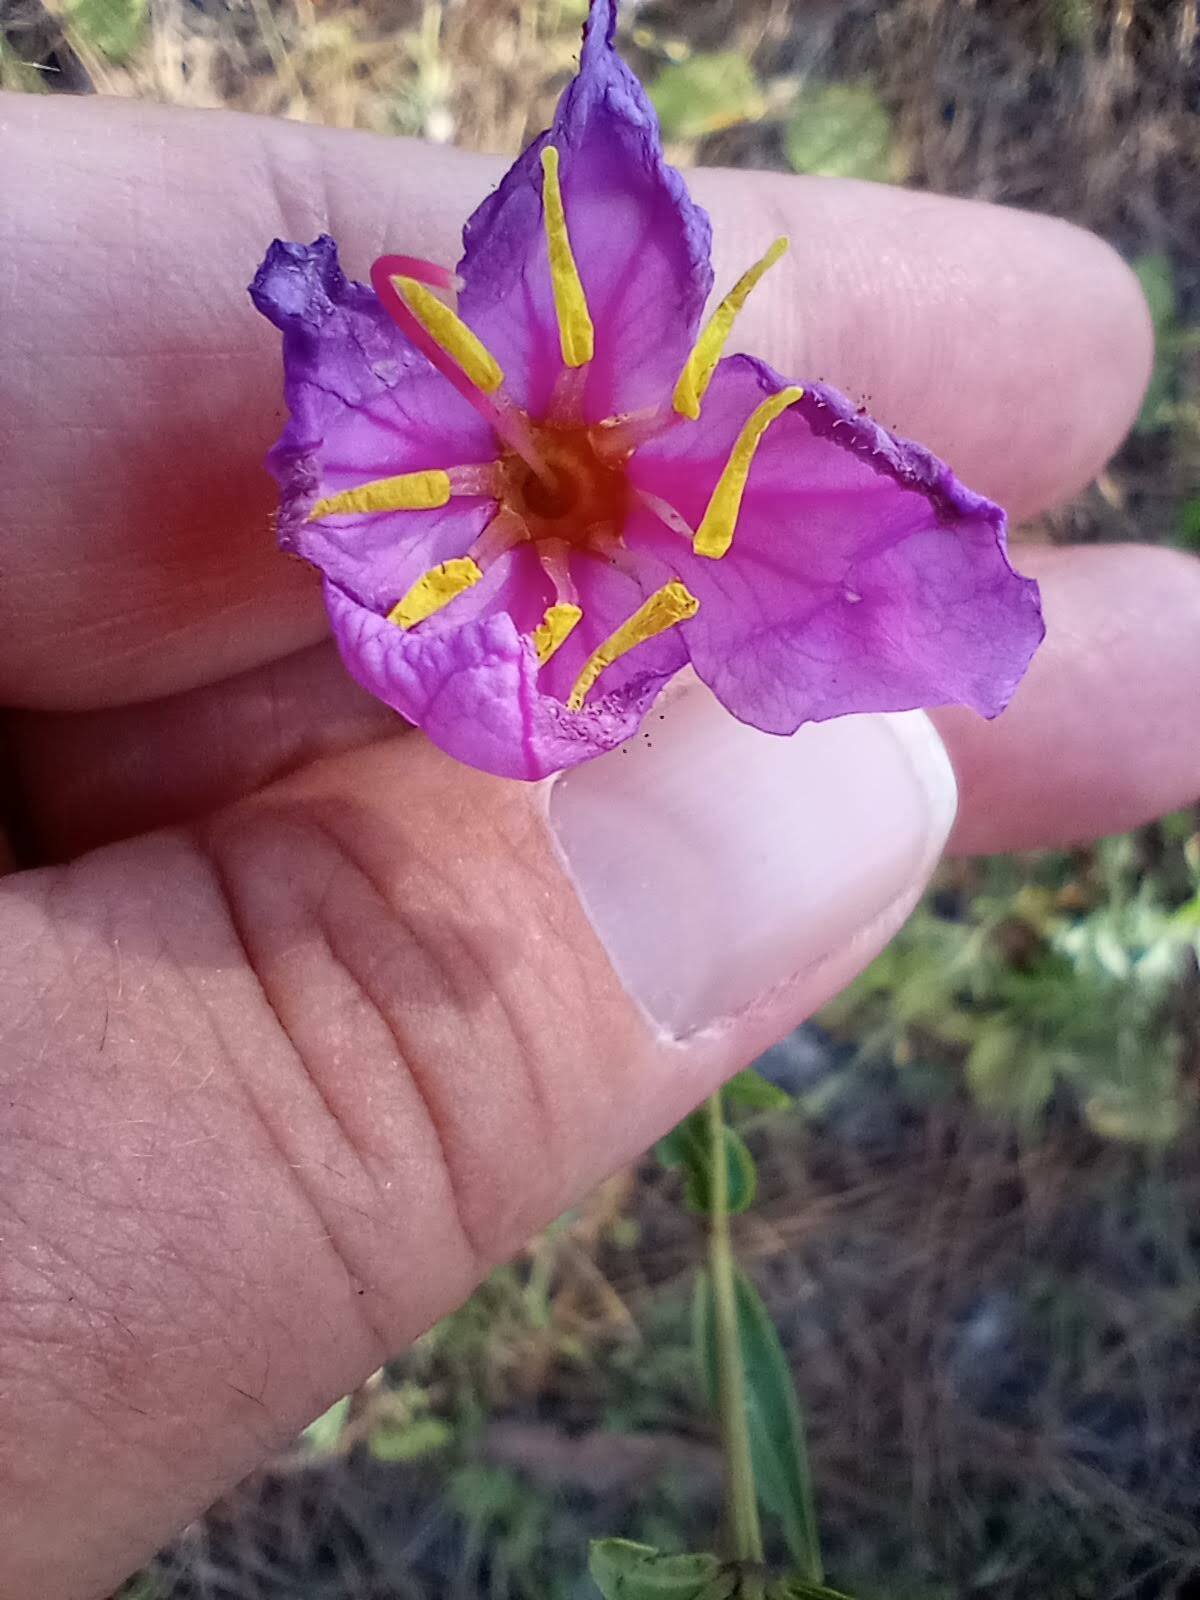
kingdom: Plantae
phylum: Tracheophyta
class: Magnoliopsida
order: Myrtales
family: Melastomataceae
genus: Rhexia
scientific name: Rhexia alifanus
